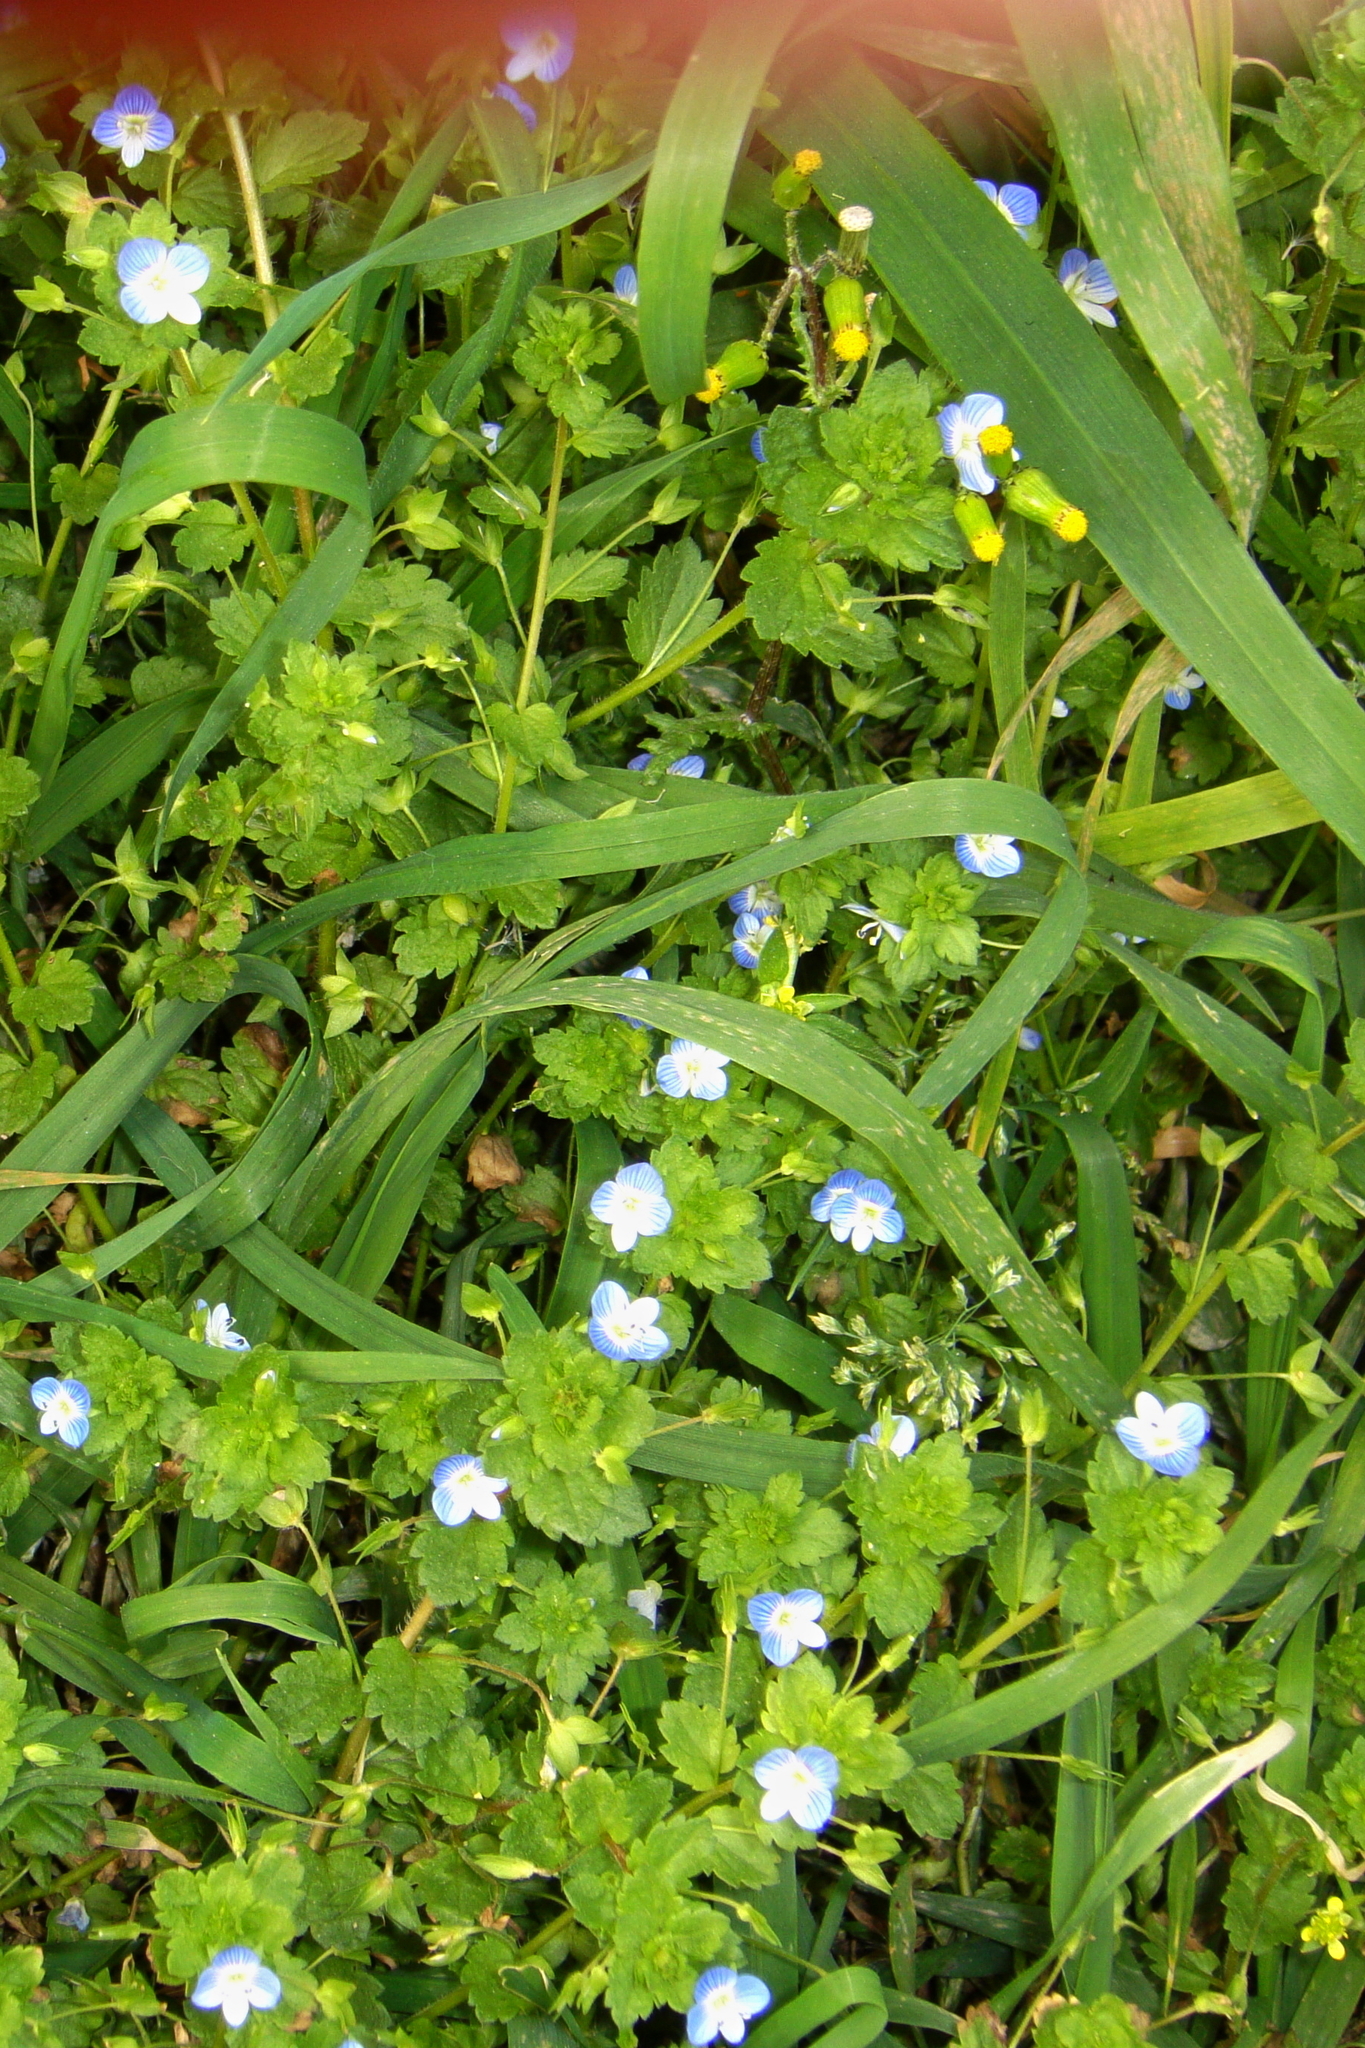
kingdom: Plantae
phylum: Tracheophyta
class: Magnoliopsida
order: Lamiales
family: Plantaginaceae
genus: Veronica
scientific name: Veronica persica
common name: Common field-speedwell
